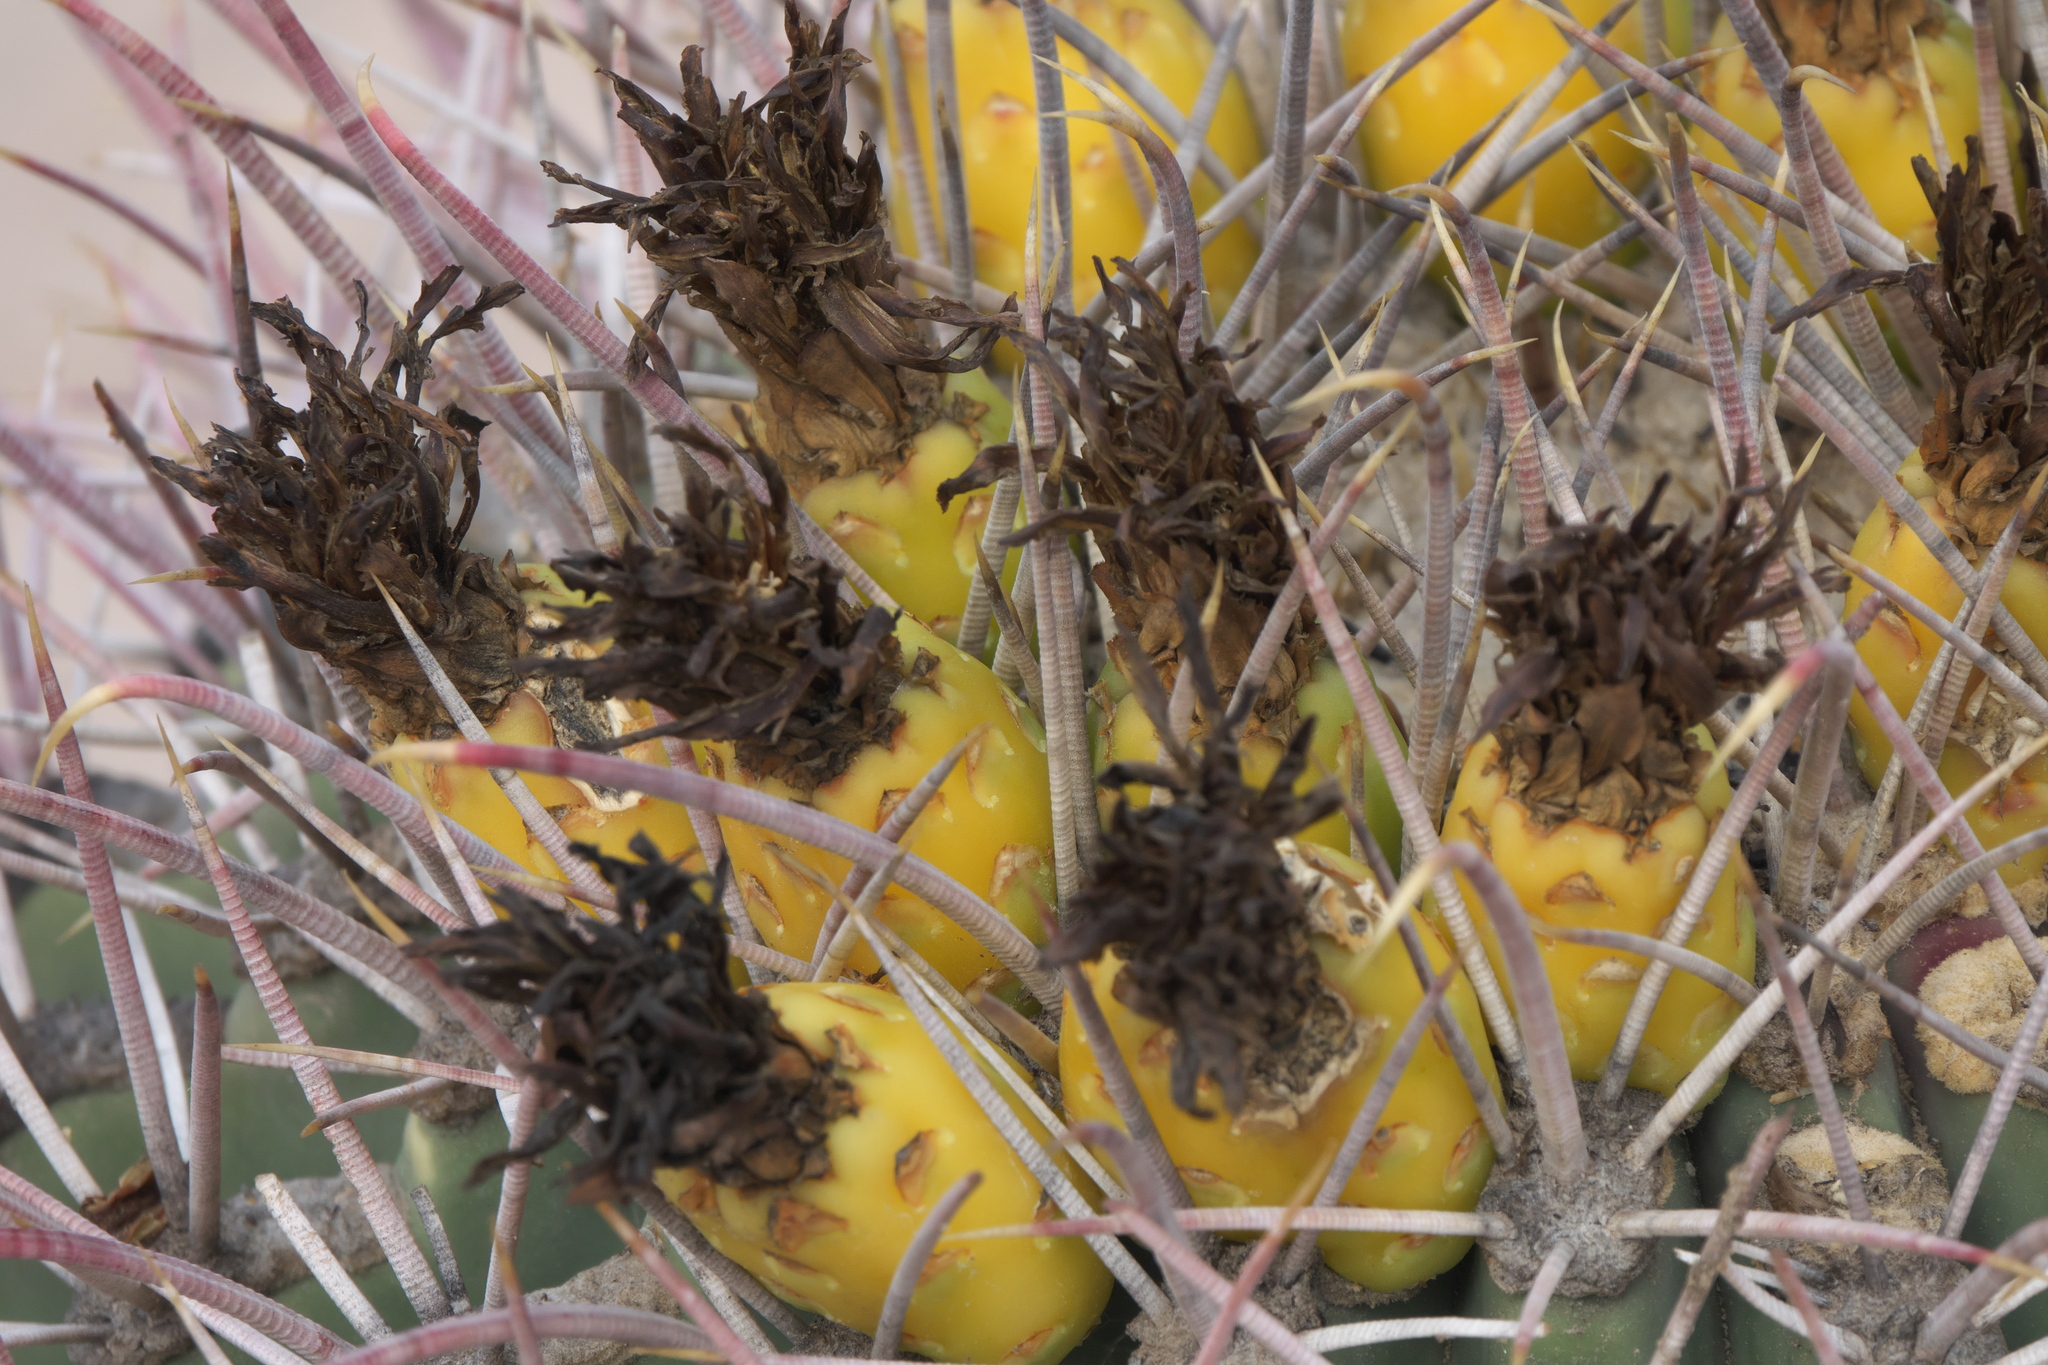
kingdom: Plantae
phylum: Tracheophyta
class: Magnoliopsida
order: Caryophyllales
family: Cactaceae
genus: Ferocactus
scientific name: Ferocactus emoryi
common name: Emory's barrel cactus
